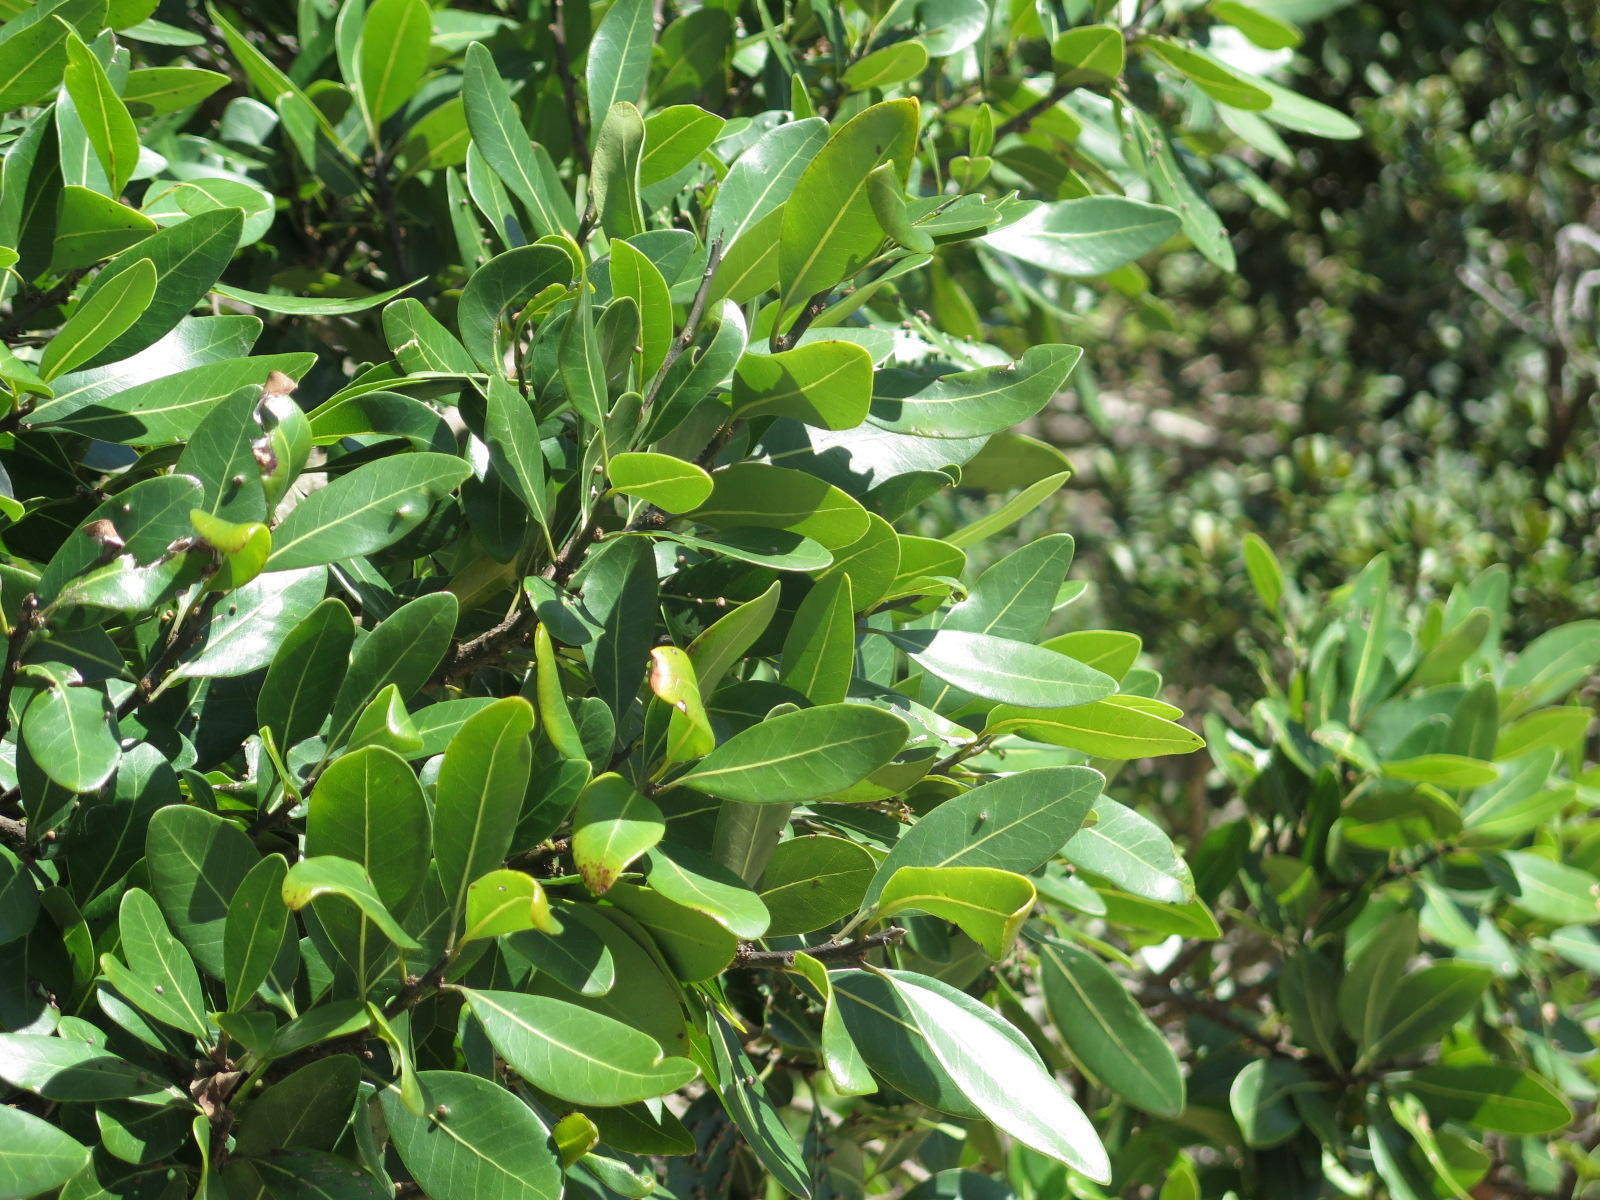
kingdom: Plantae
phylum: Tracheophyta
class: Magnoliopsida
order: Ericales
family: Sapotaceae
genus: Sideroxylon
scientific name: Sideroxylon inerme
